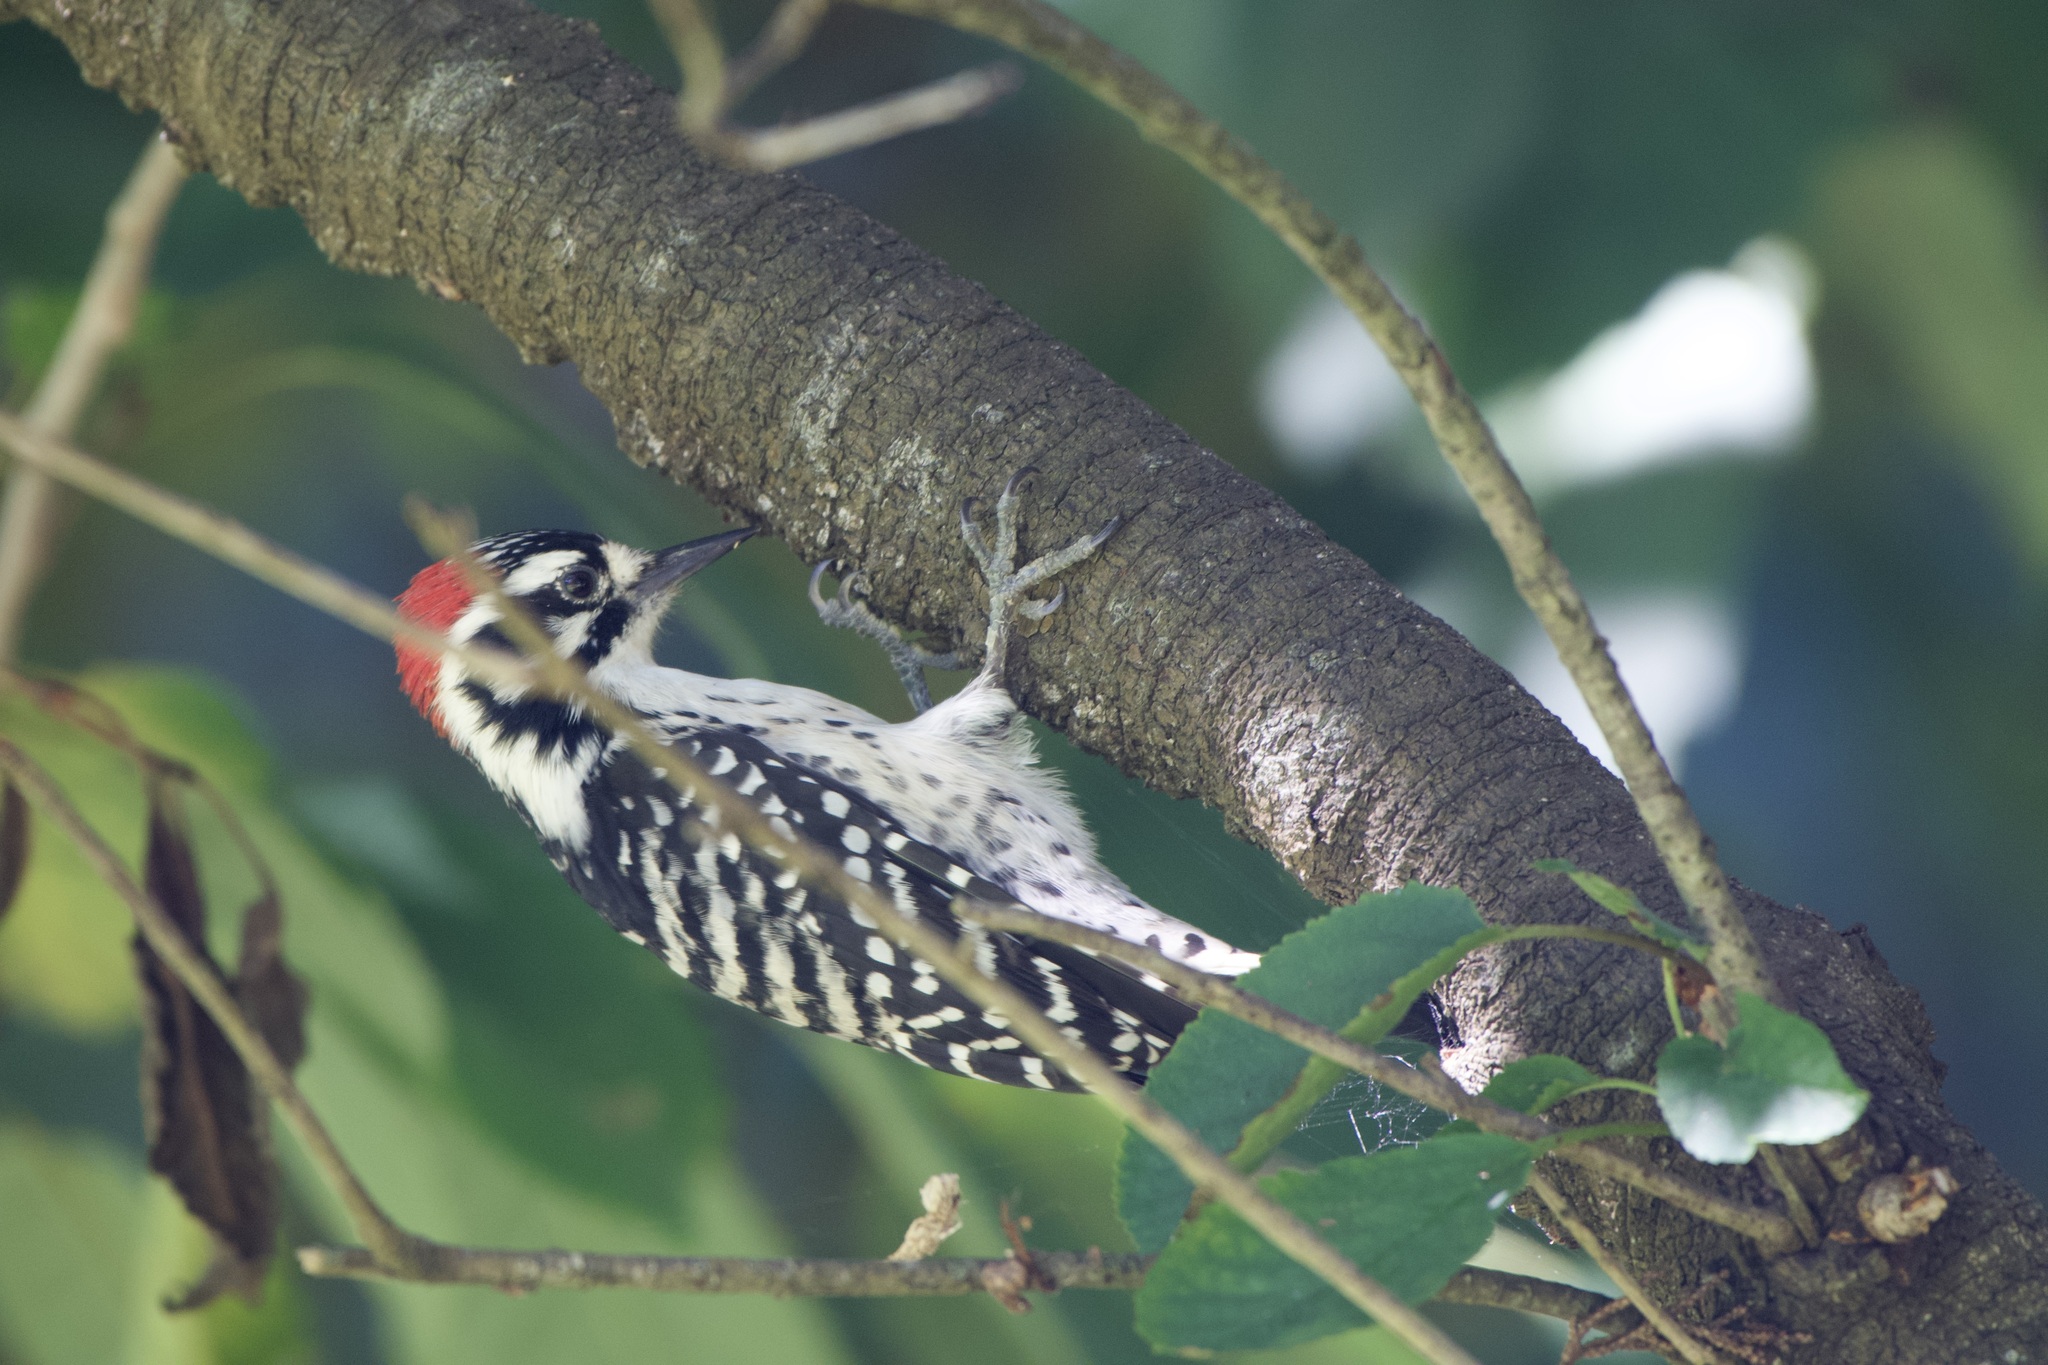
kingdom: Animalia
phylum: Chordata
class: Aves
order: Piciformes
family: Picidae
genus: Dryobates
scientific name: Dryobates nuttallii
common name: Nuttall's woodpecker
